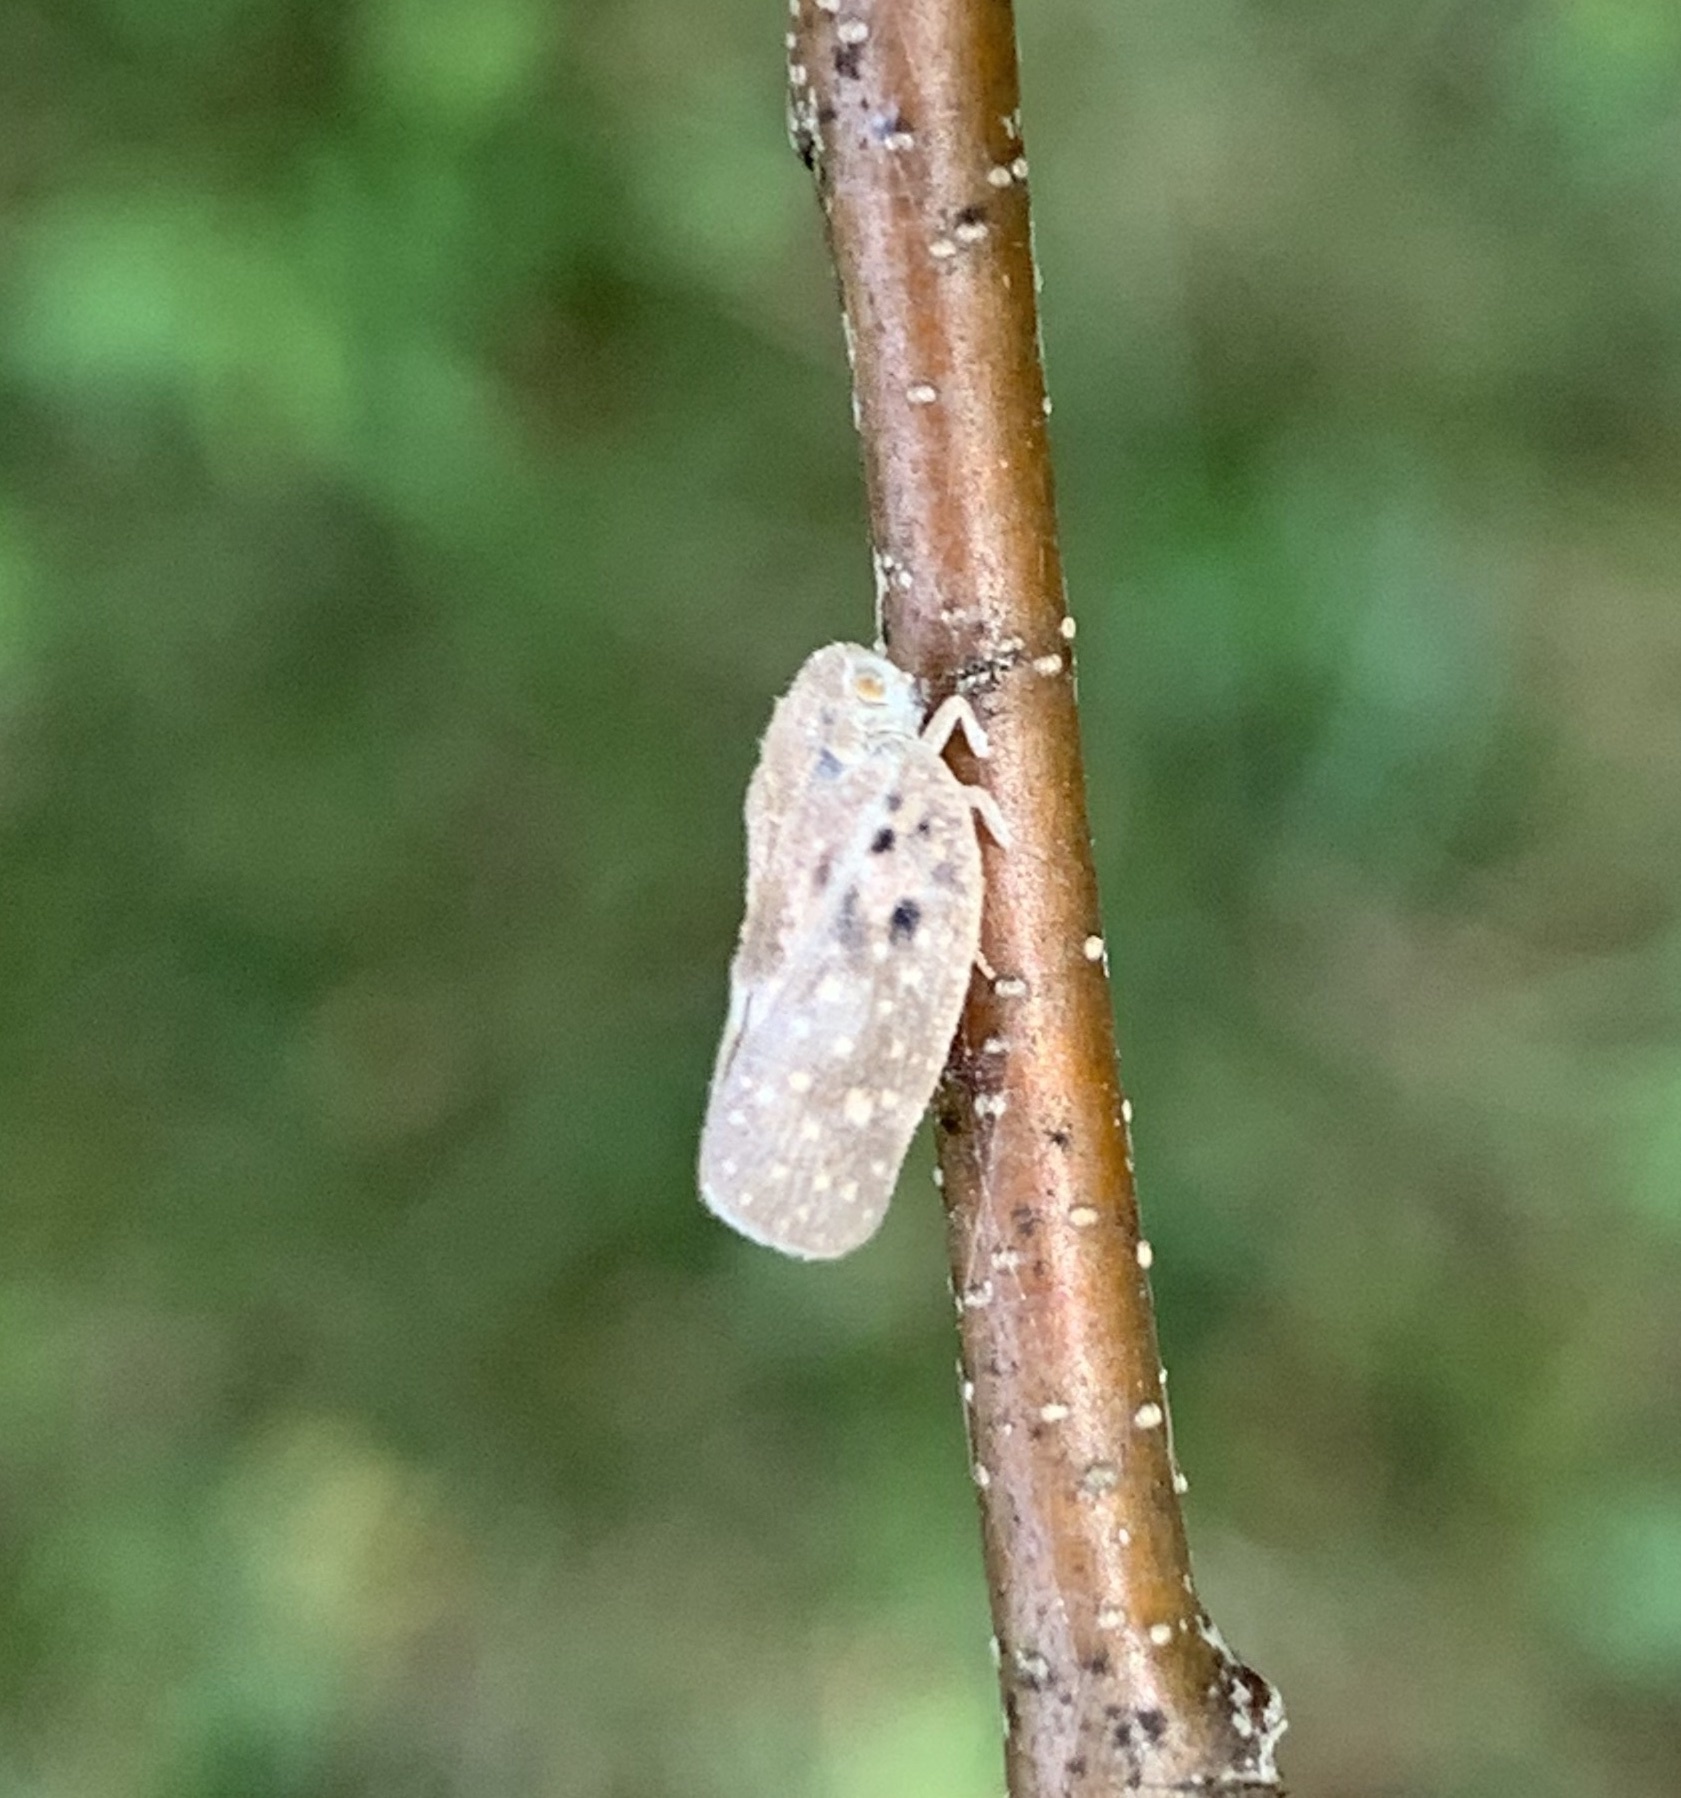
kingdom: Animalia
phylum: Arthropoda
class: Insecta
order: Hemiptera
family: Flatidae
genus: Metcalfa
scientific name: Metcalfa pruinosa
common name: Citrus flatid planthopper
